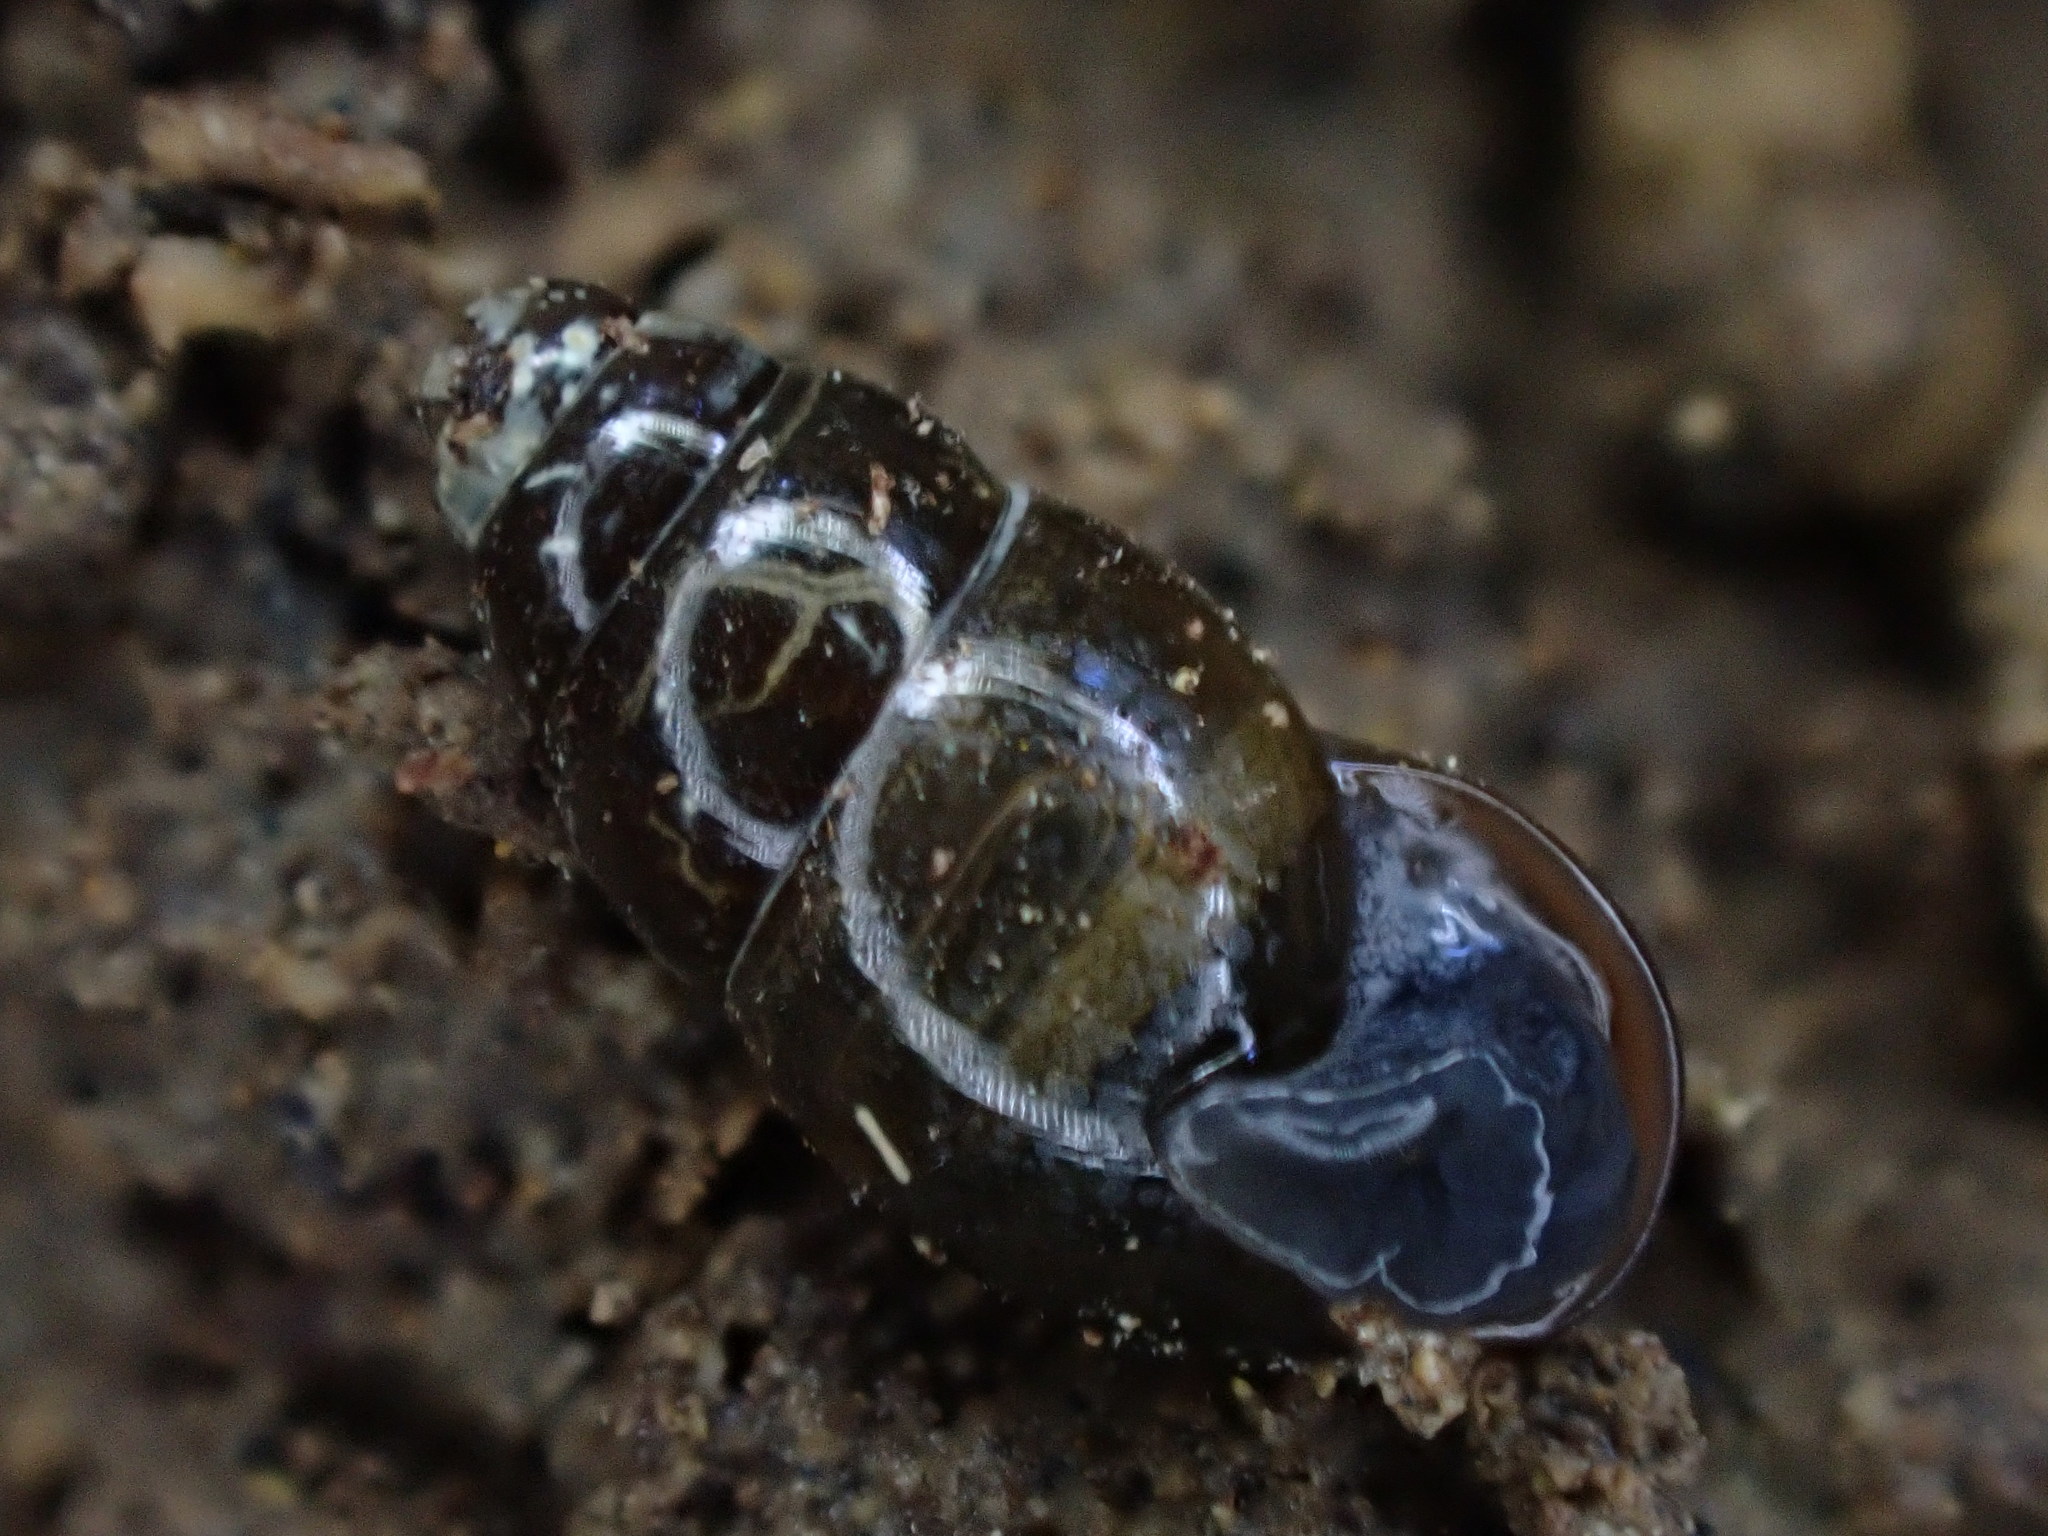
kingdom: Animalia
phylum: Mollusca
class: Gastropoda
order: Stylommatophora
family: Cochlicopidae
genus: Cochlicopa
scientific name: Cochlicopa lubrica
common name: Glossy pillar snail
